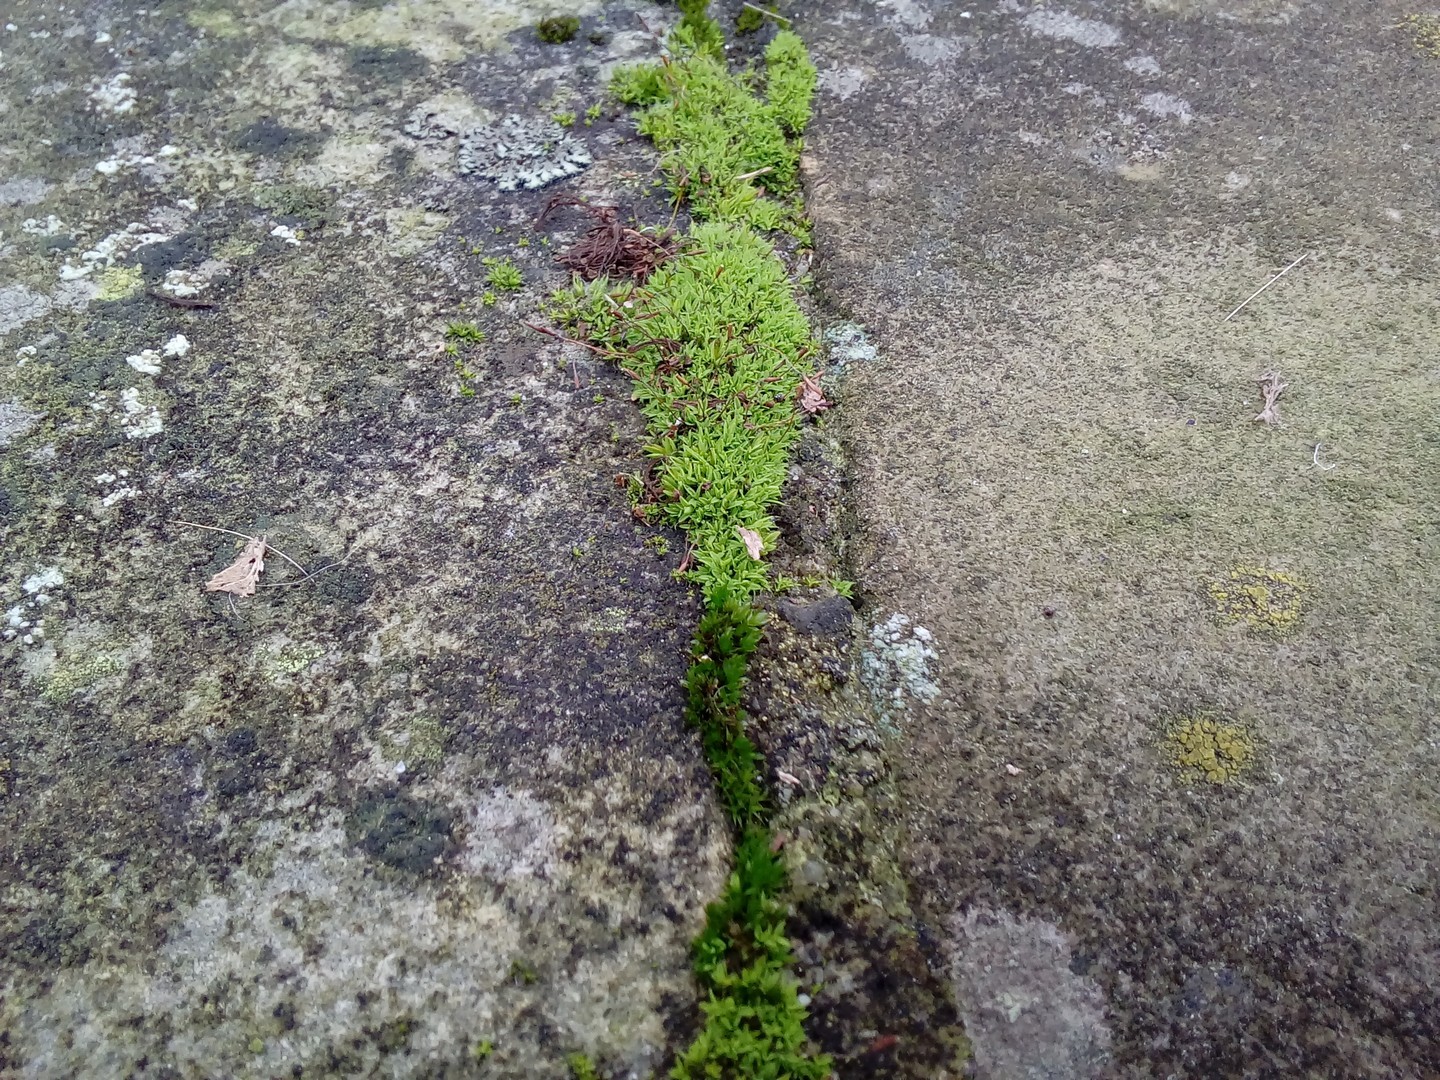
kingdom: Plantae
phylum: Bryophyta
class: Bryopsida
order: Pottiales
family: Pottiaceae
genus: Tortula
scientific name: Tortula muralis
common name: Wall screw-moss
